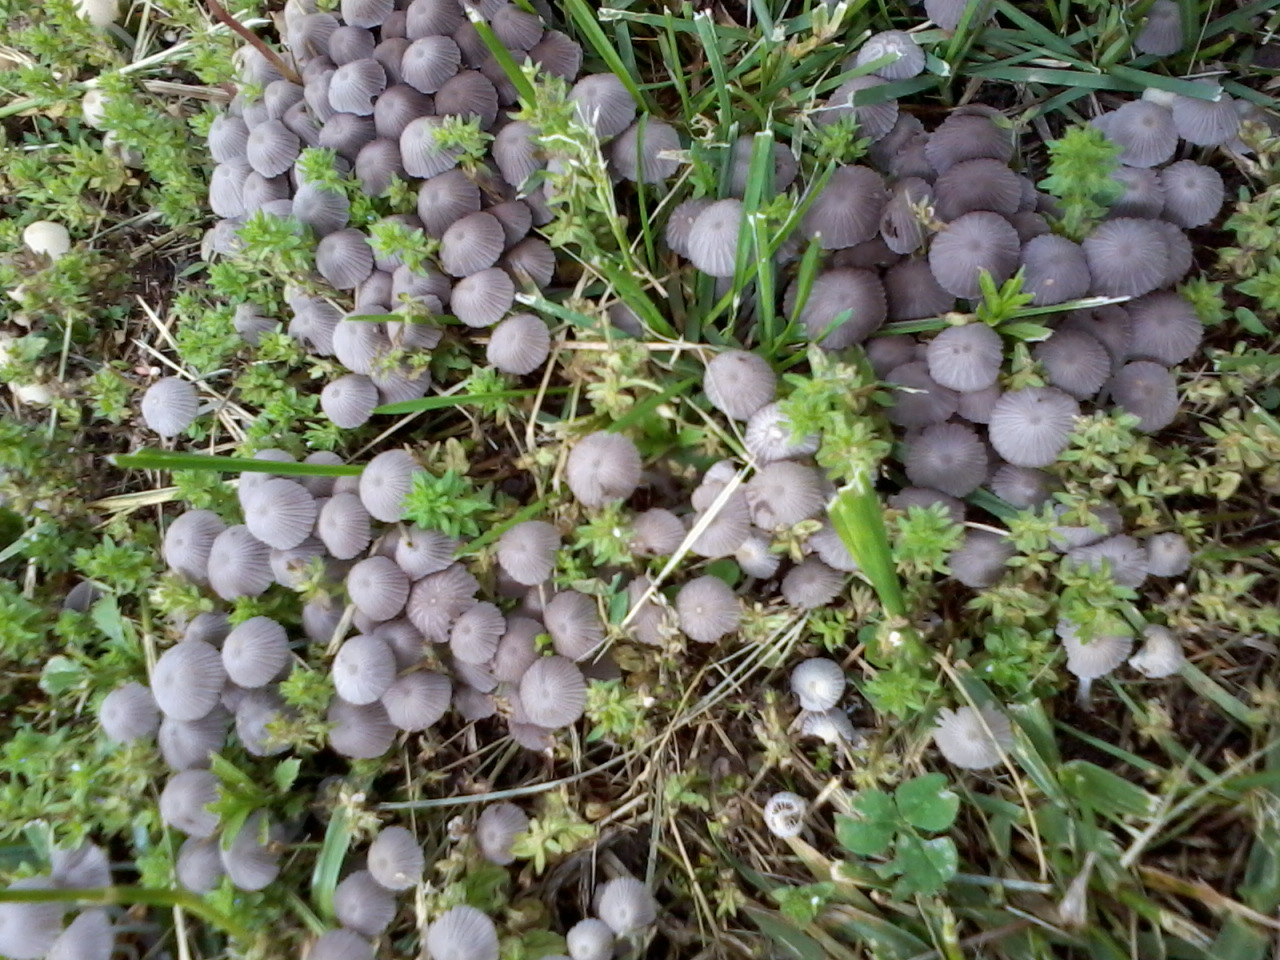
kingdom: Fungi
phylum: Basidiomycota
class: Agaricomycetes
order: Agaricales
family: Psathyrellaceae
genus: Coprinellus
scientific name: Coprinellus disseminatus
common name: Fairies' bonnets
